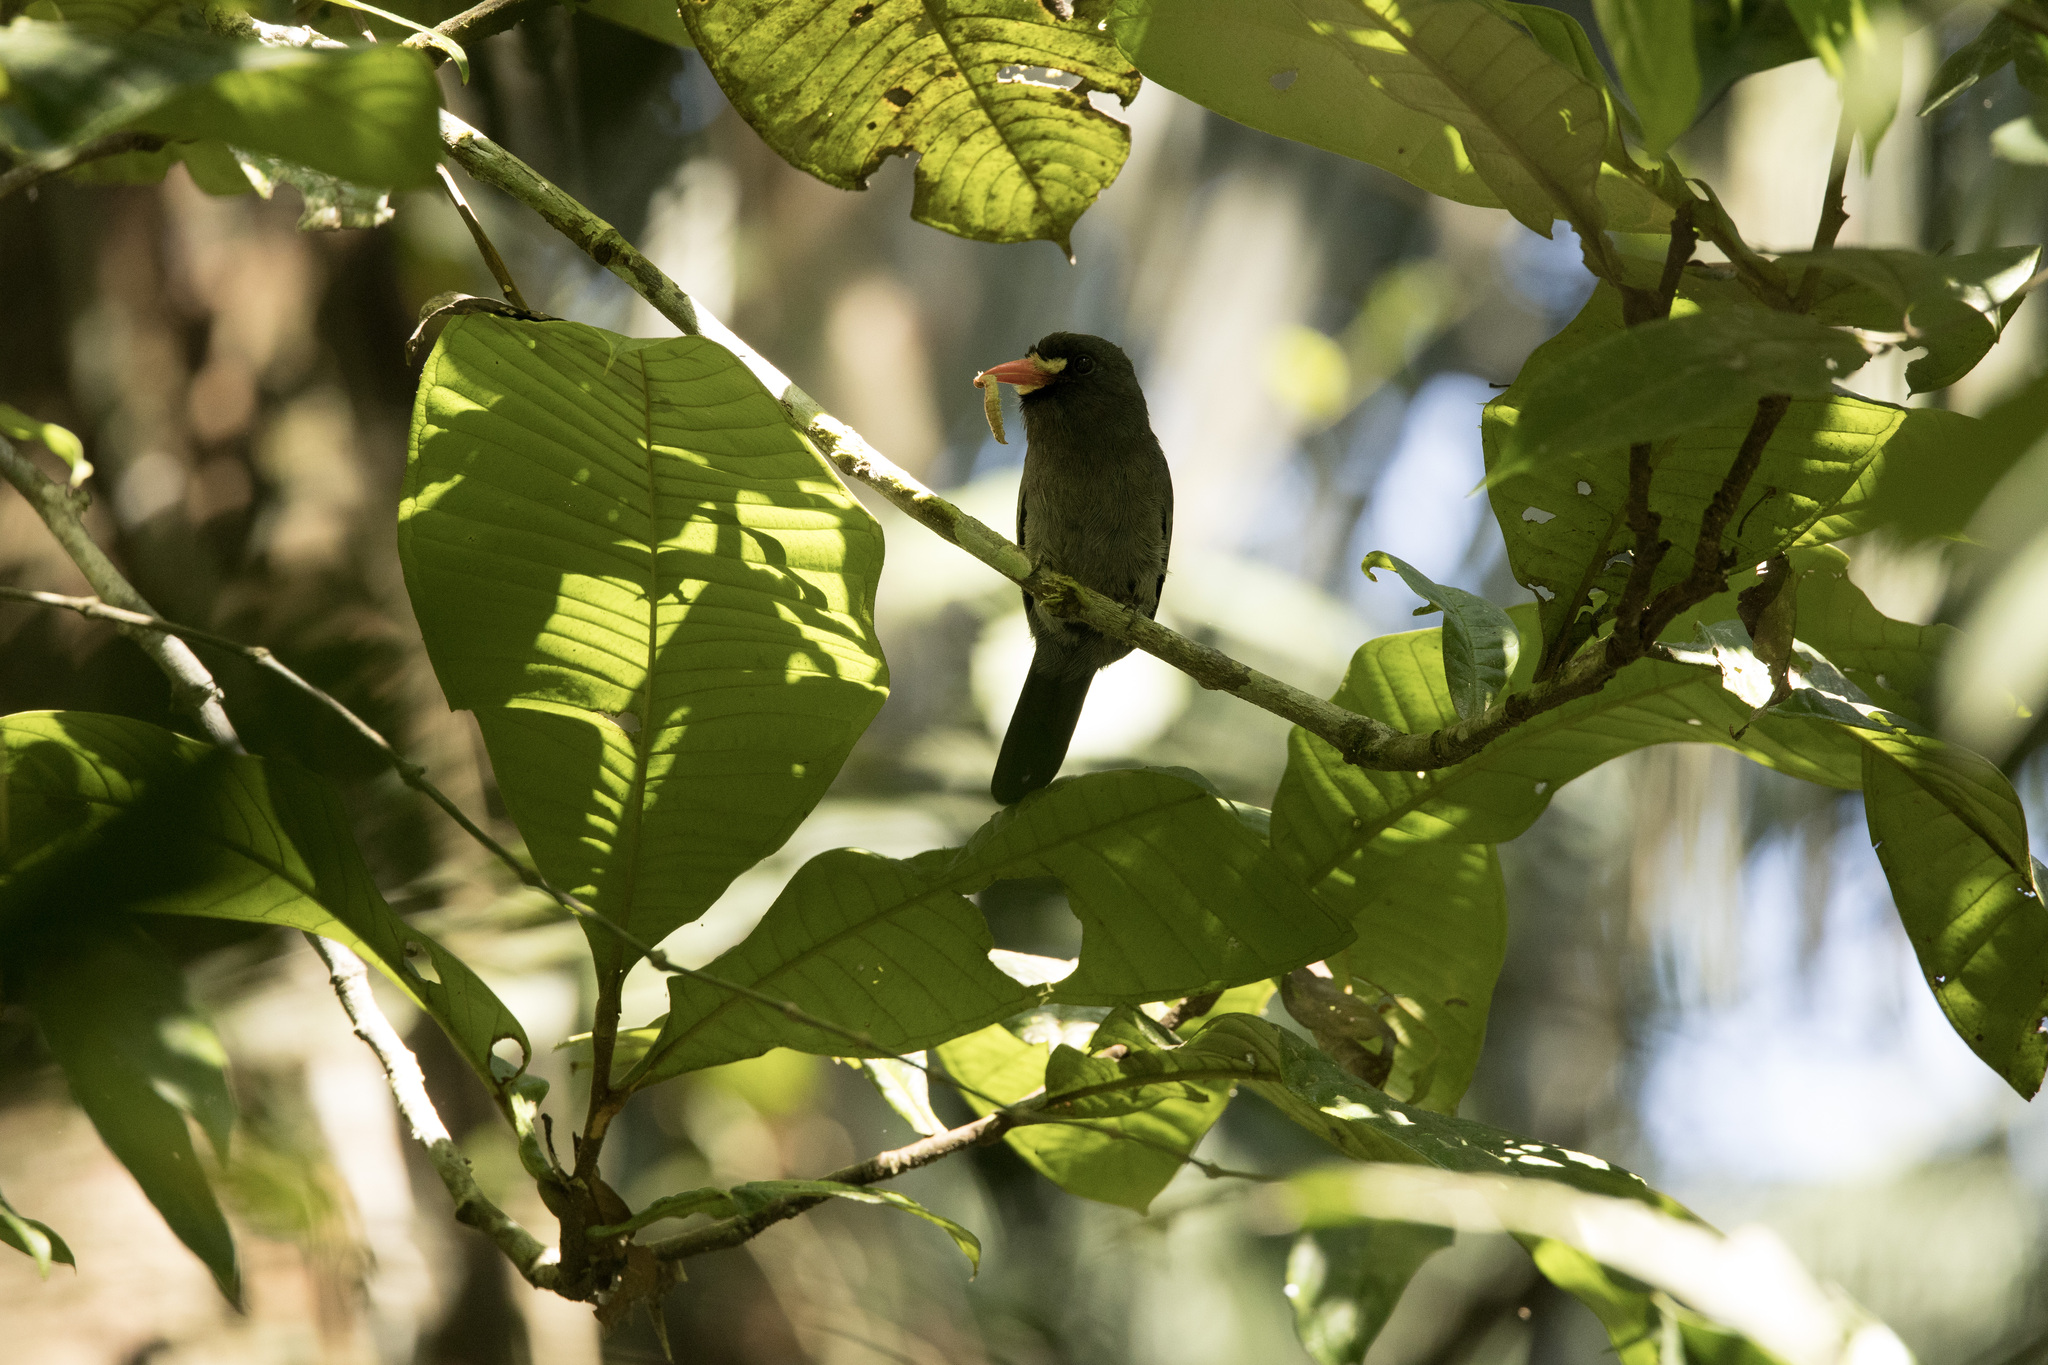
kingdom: Animalia
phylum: Chordata
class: Aves
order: Piciformes
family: Bucconidae
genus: Monasa
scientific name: Monasa morphoeus
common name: White-fronted nunbird
